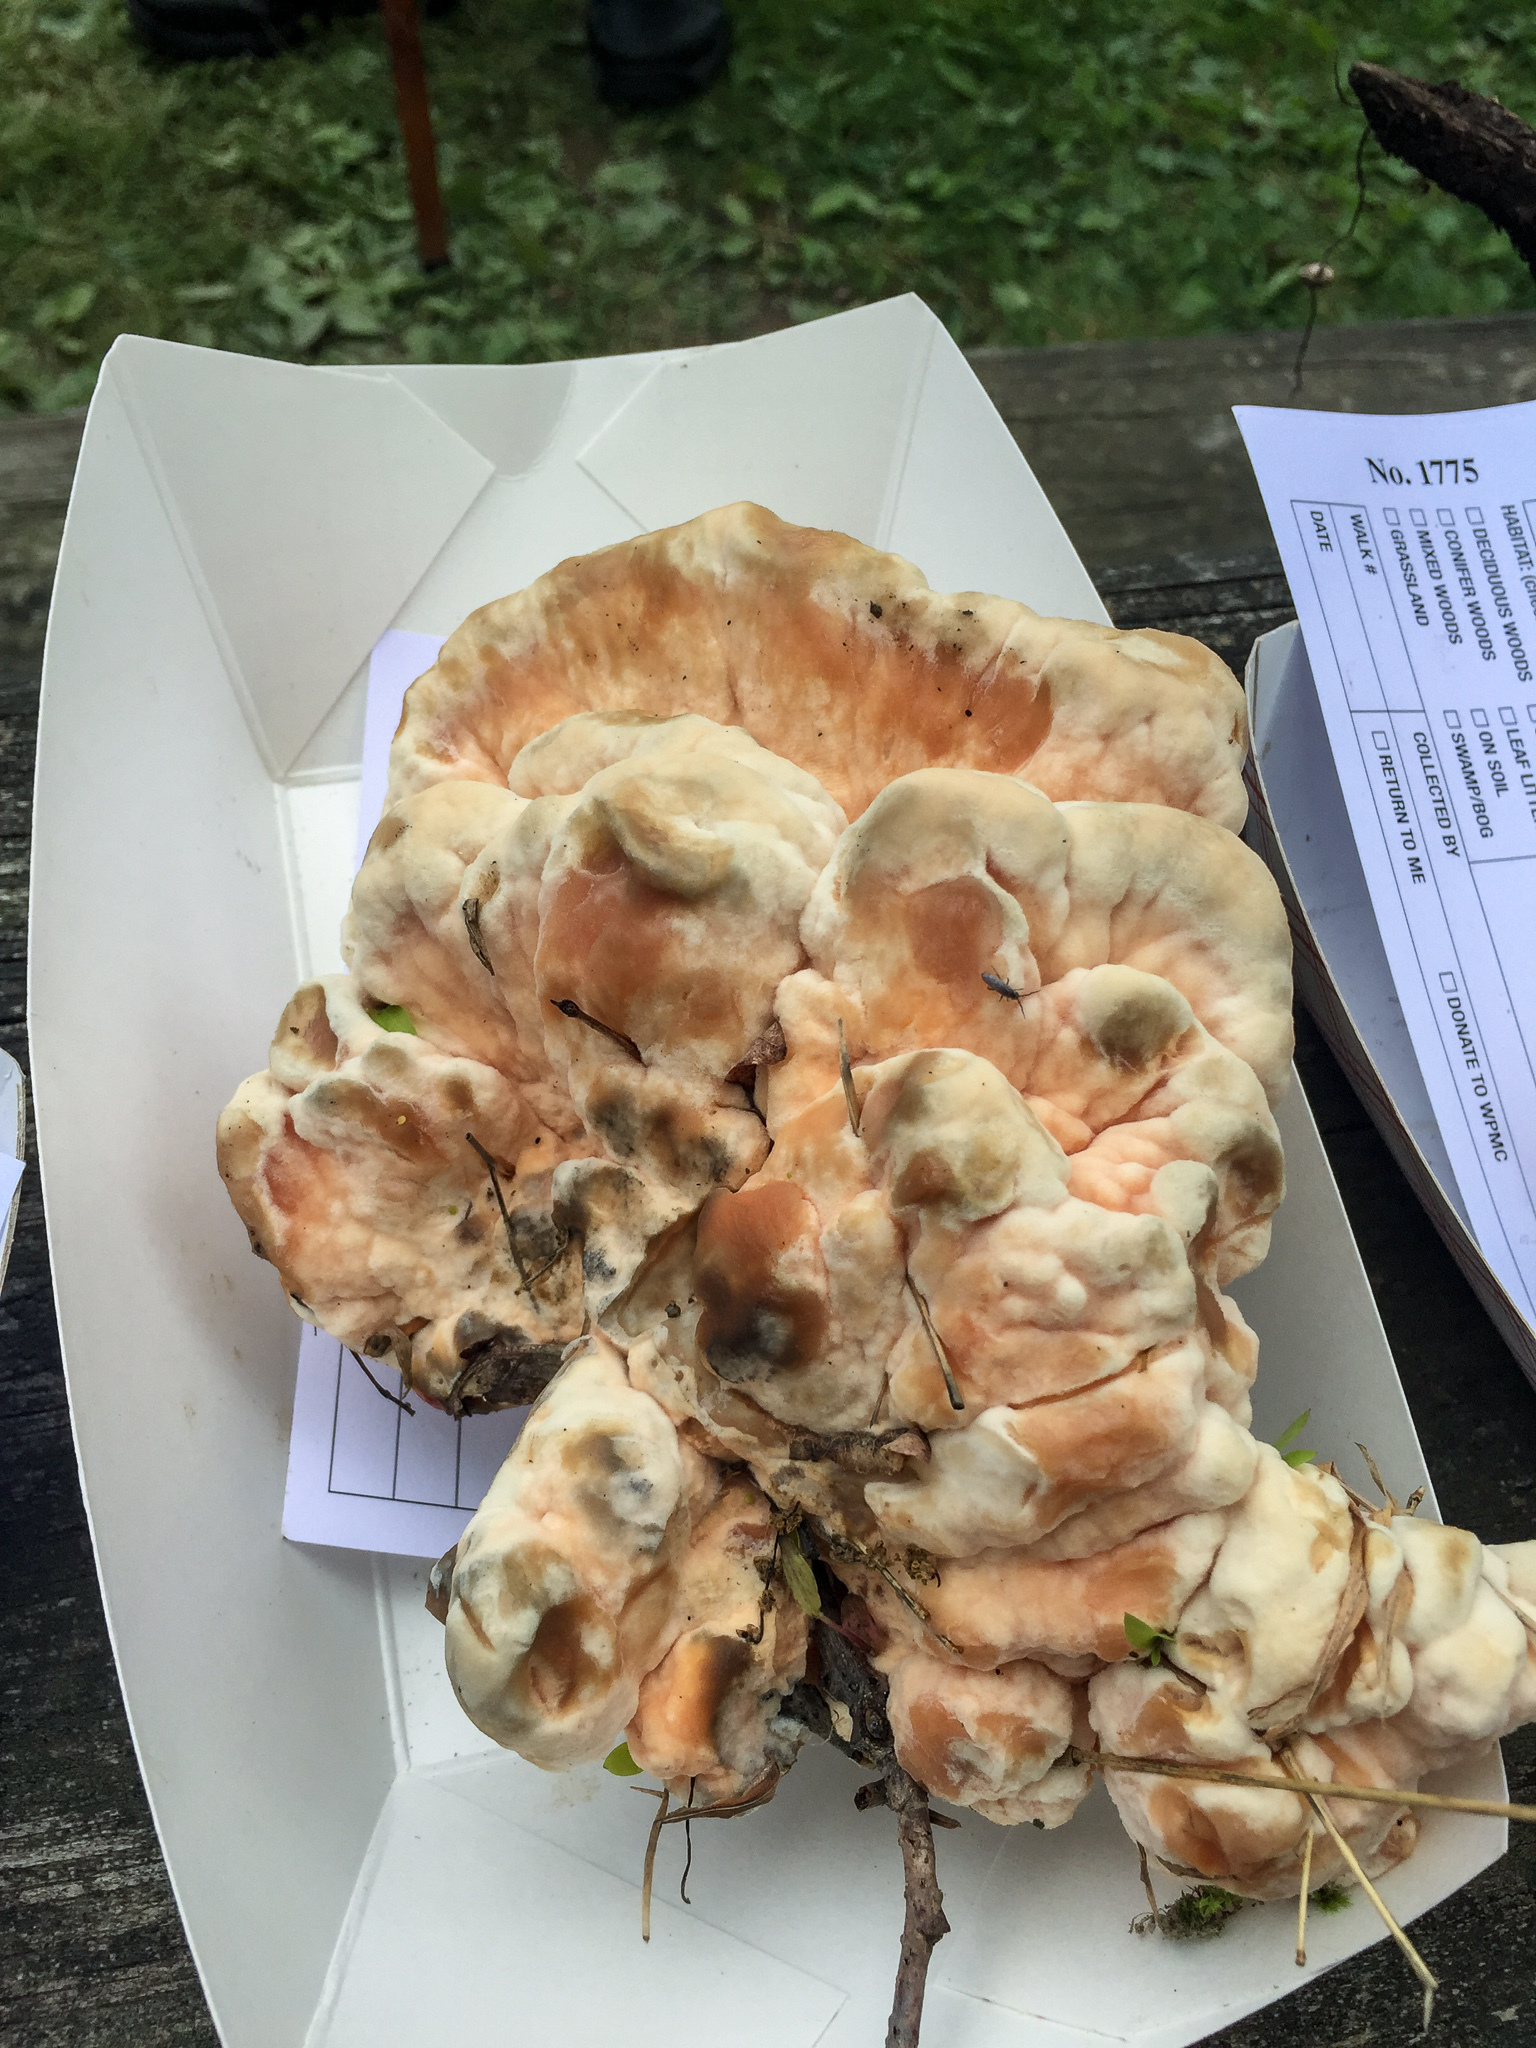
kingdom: Fungi
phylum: Basidiomycota
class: Agaricomycetes
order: Polyporales
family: Laetiporaceae
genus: Laetiporus
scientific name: Laetiporus sulphureus
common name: Chicken of the woods
